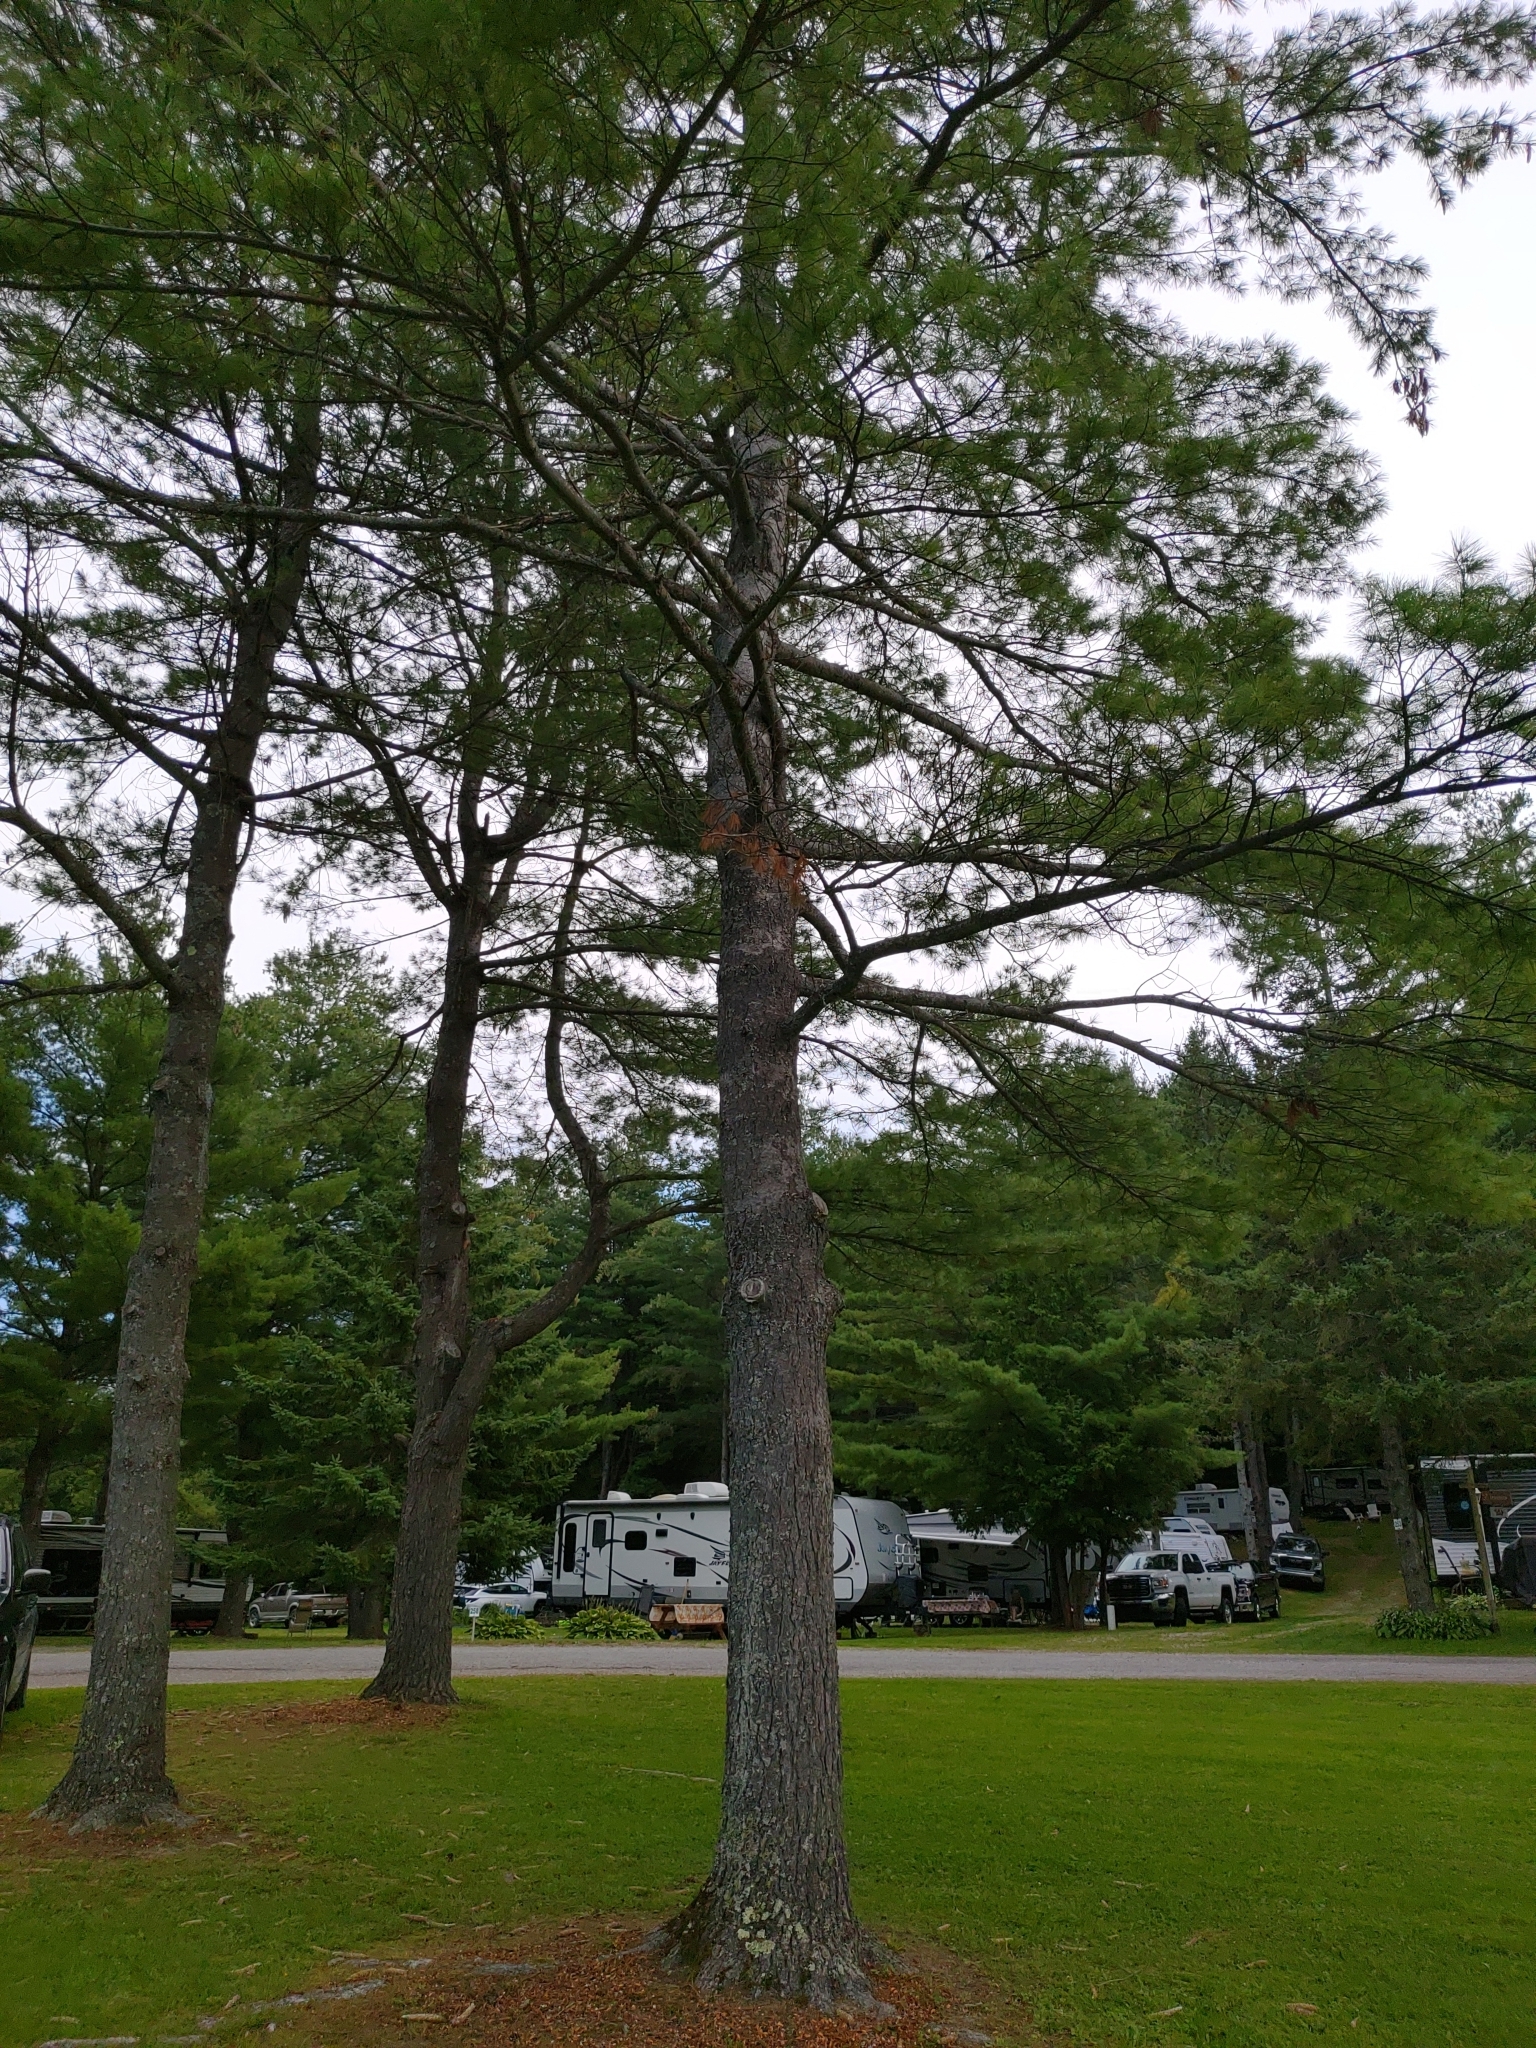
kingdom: Plantae
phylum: Tracheophyta
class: Pinopsida
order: Pinales
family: Pinaceae
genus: Pinus
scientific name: Pinus strobus
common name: Weymouth pine
